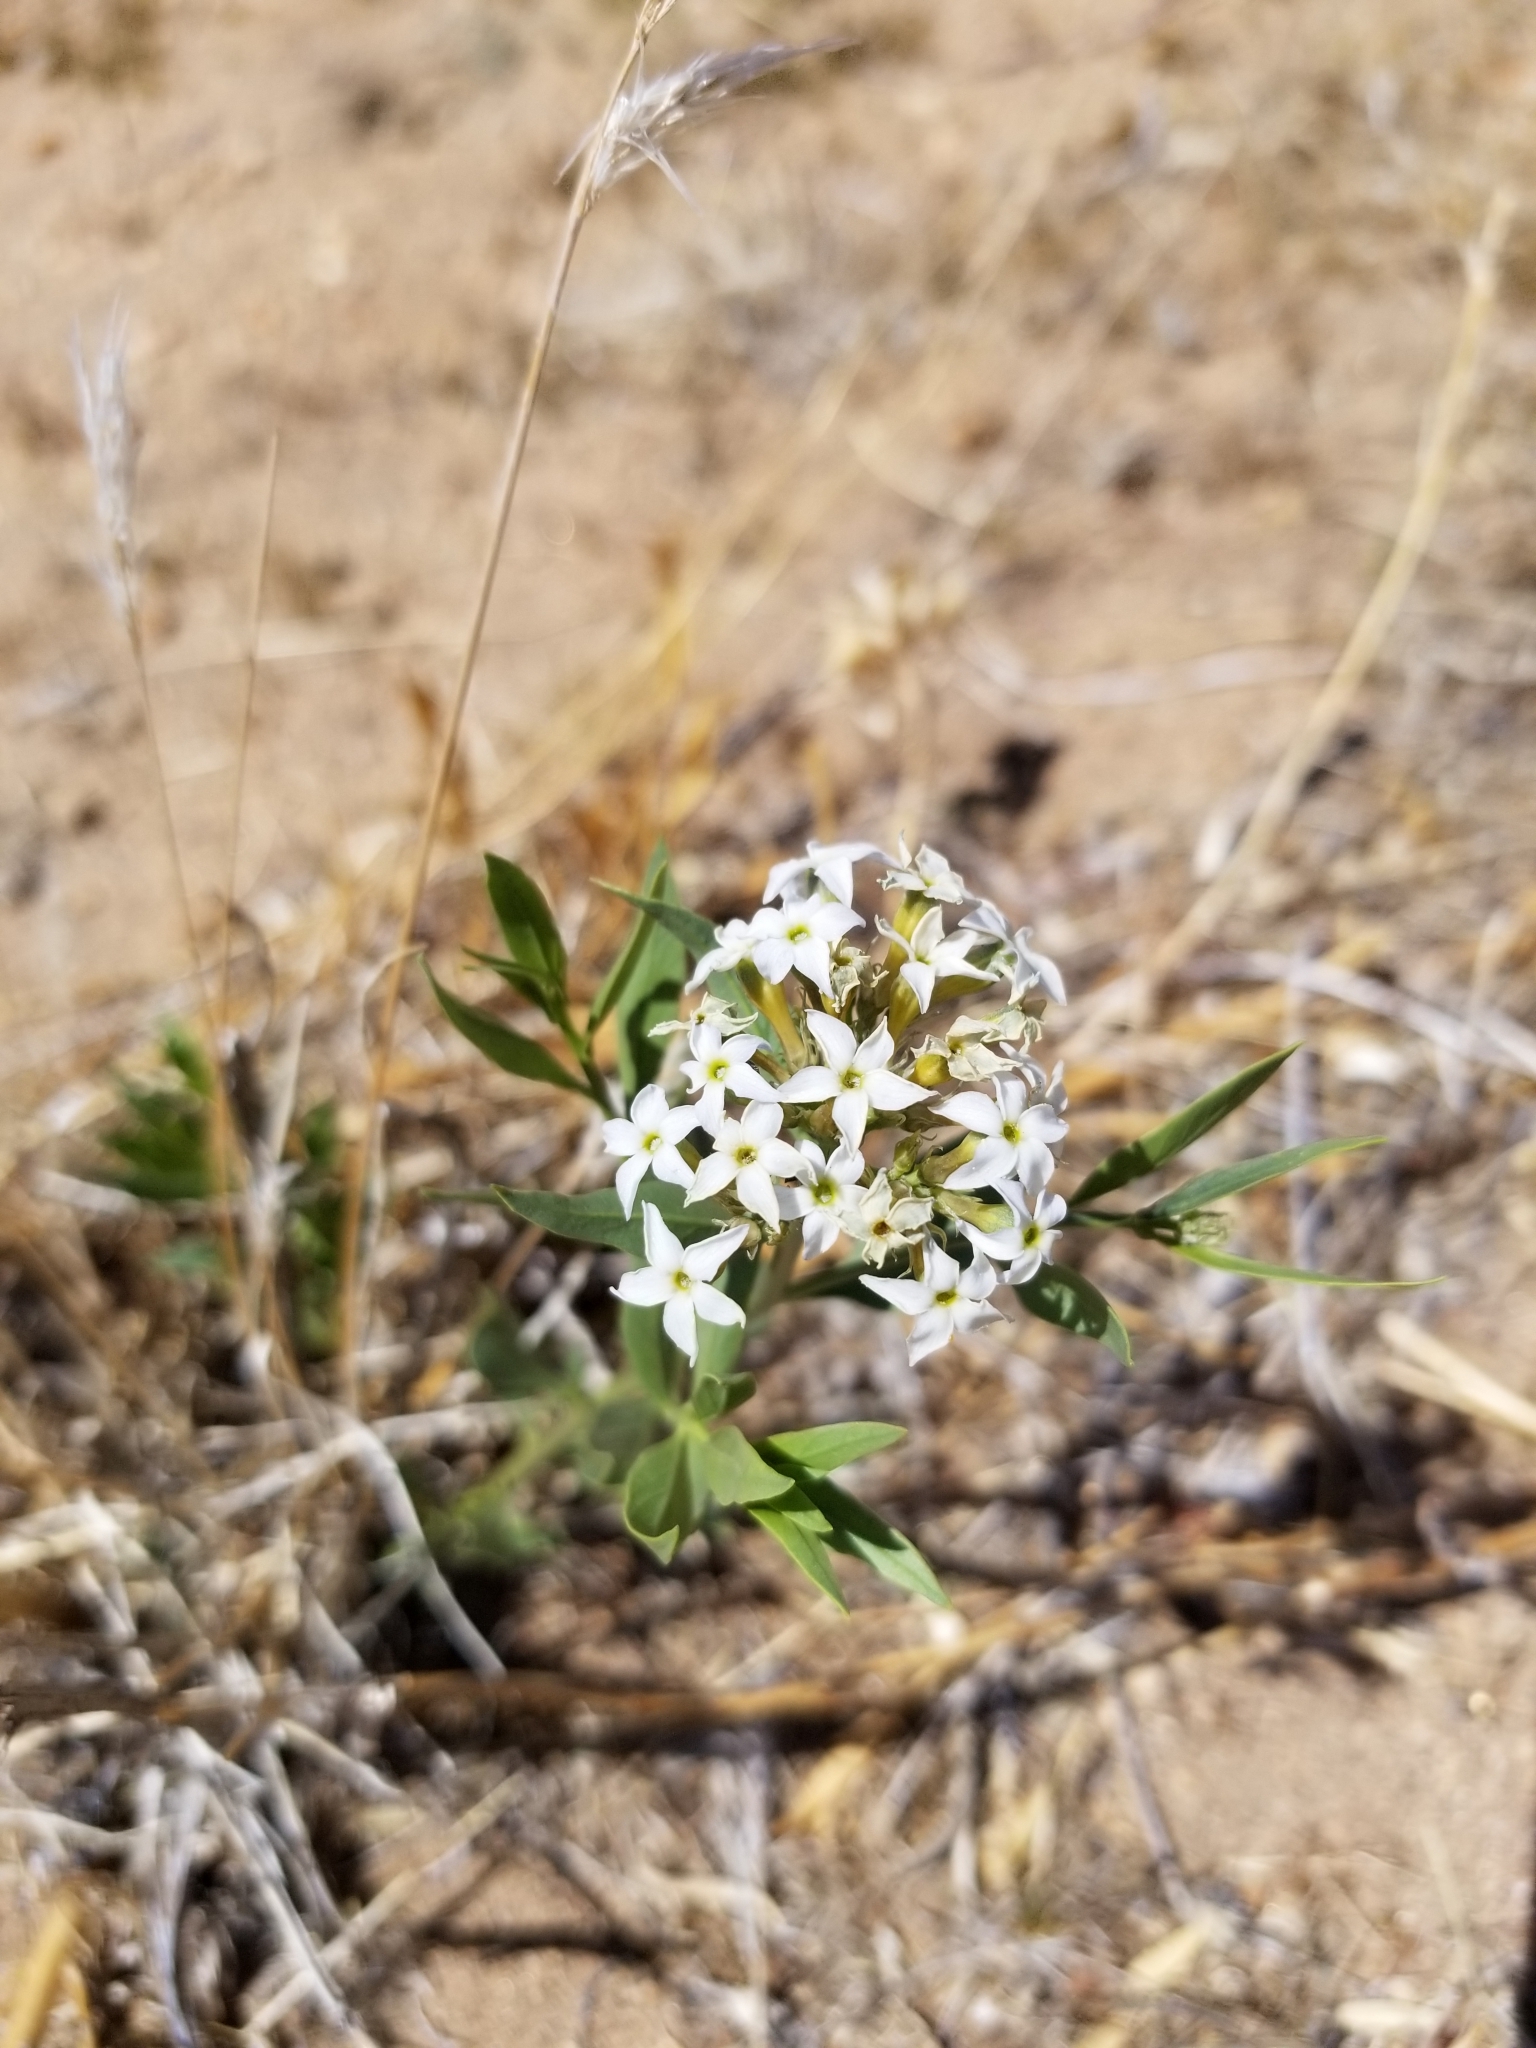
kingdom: Plantae
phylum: Tracheophyta
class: Magnoliopsida
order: Gentianales
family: Apocynaceae
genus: Amsonia
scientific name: Amsonia tomentosa
